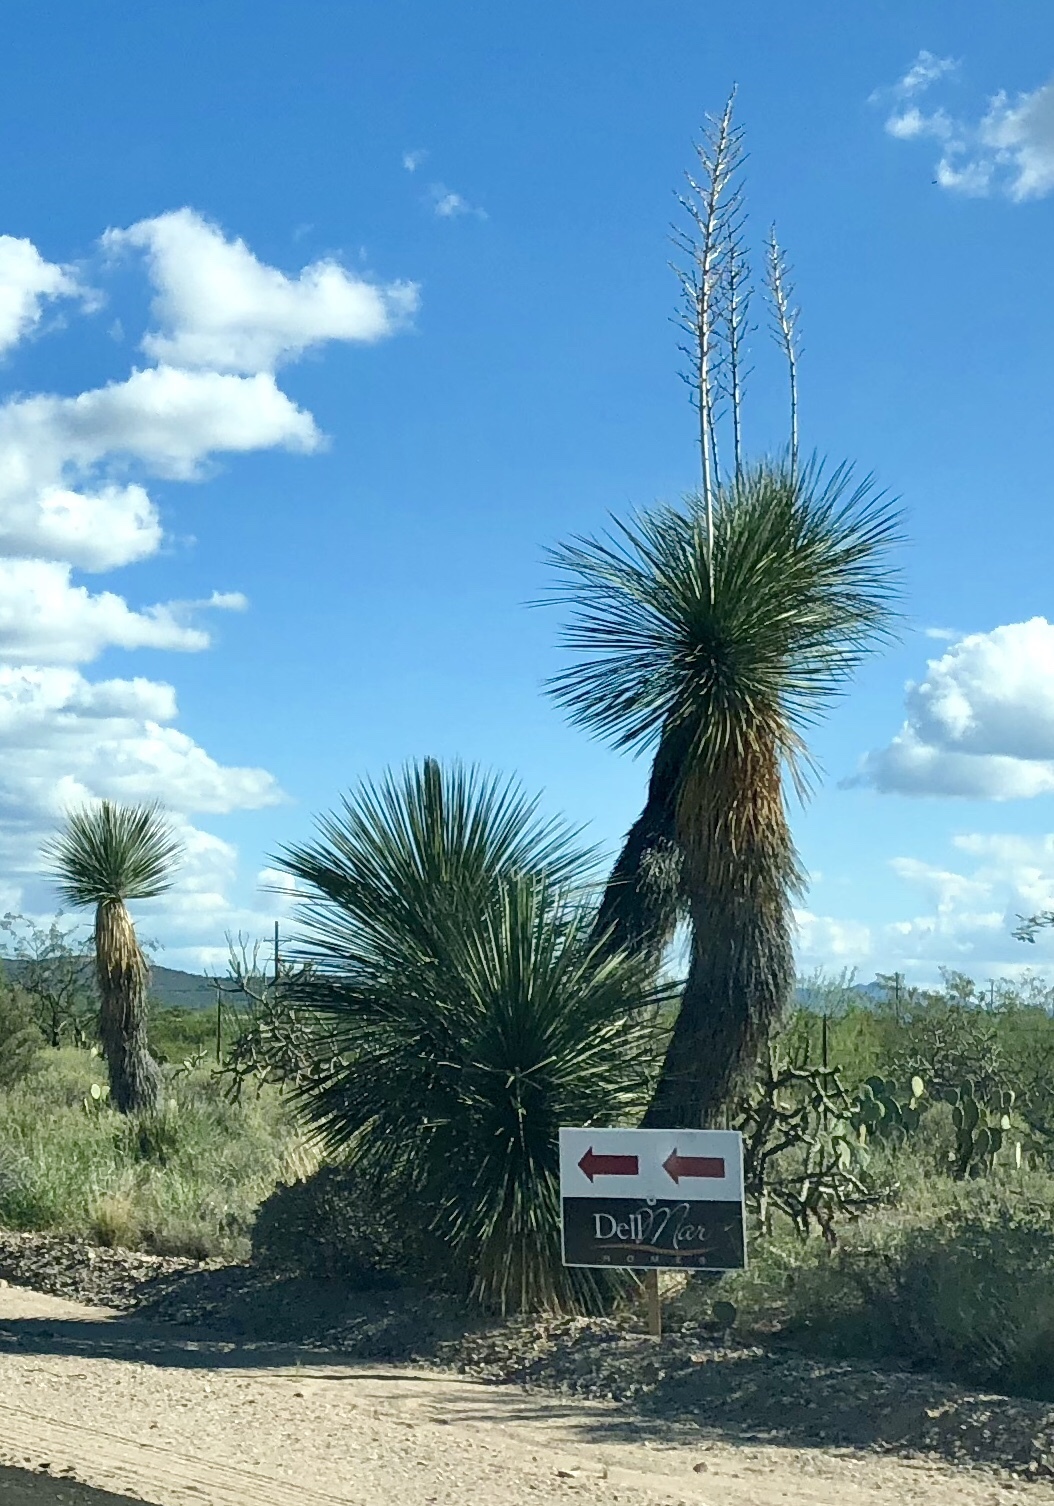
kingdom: Plantae
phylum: Tracheophyta
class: Liliopsida
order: Asparagales
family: Asparagaceae
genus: Yucca
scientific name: Yucca elata
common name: Palmella
